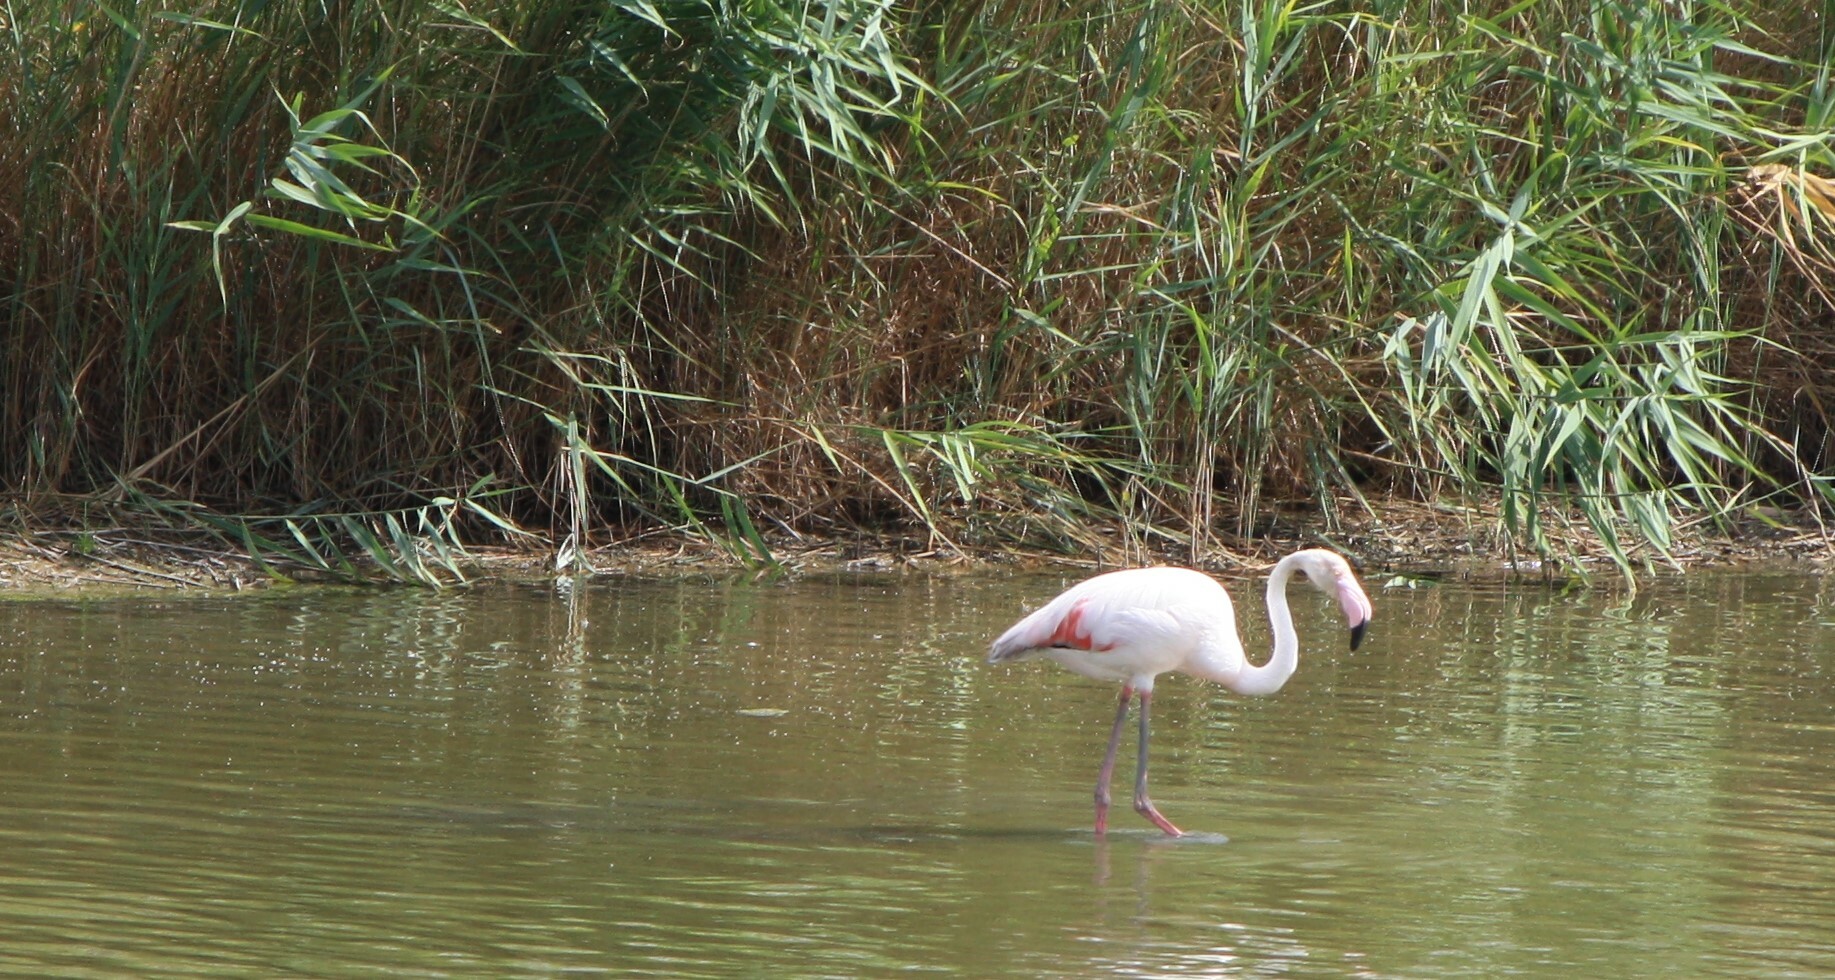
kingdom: Animalia
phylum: Chordata
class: Aves
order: Phoenicopteriformes
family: Phoenicopteridae
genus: Phoenicopterus
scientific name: Phoenicopterus roseus
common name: Greater flamingo
